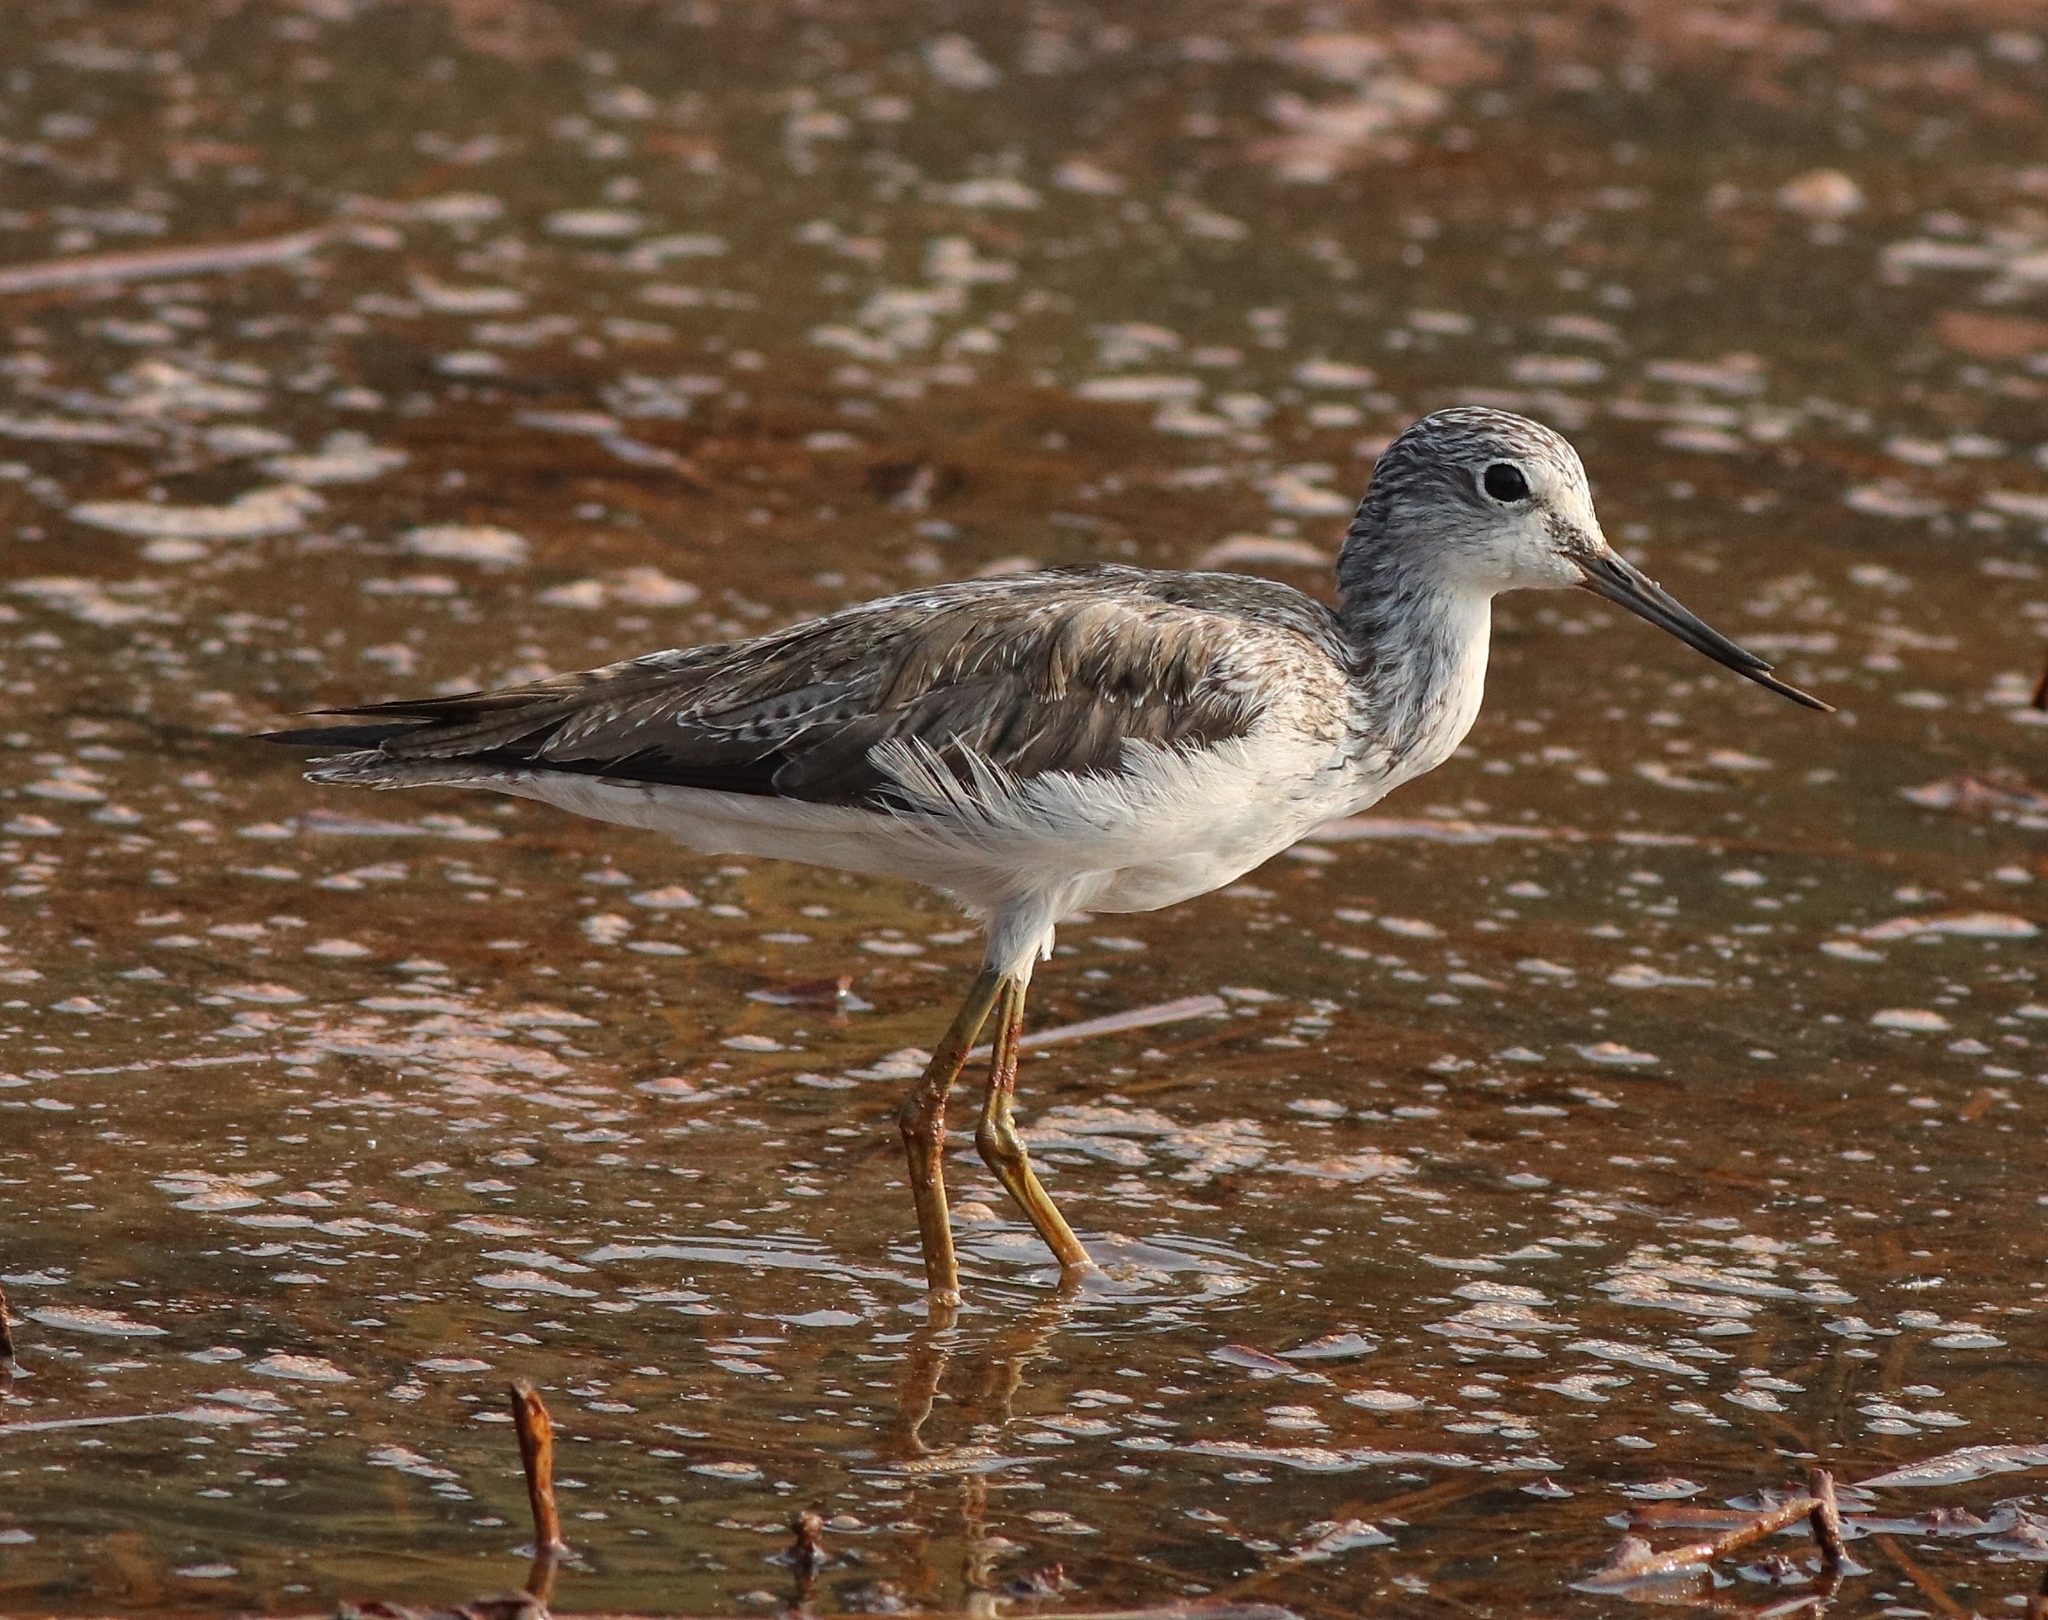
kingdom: Animalia
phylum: Chordata
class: Aves
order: Charadriiformes
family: Scolopacidae
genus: Tringa
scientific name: Tringa nebularia
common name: Common greenshank
